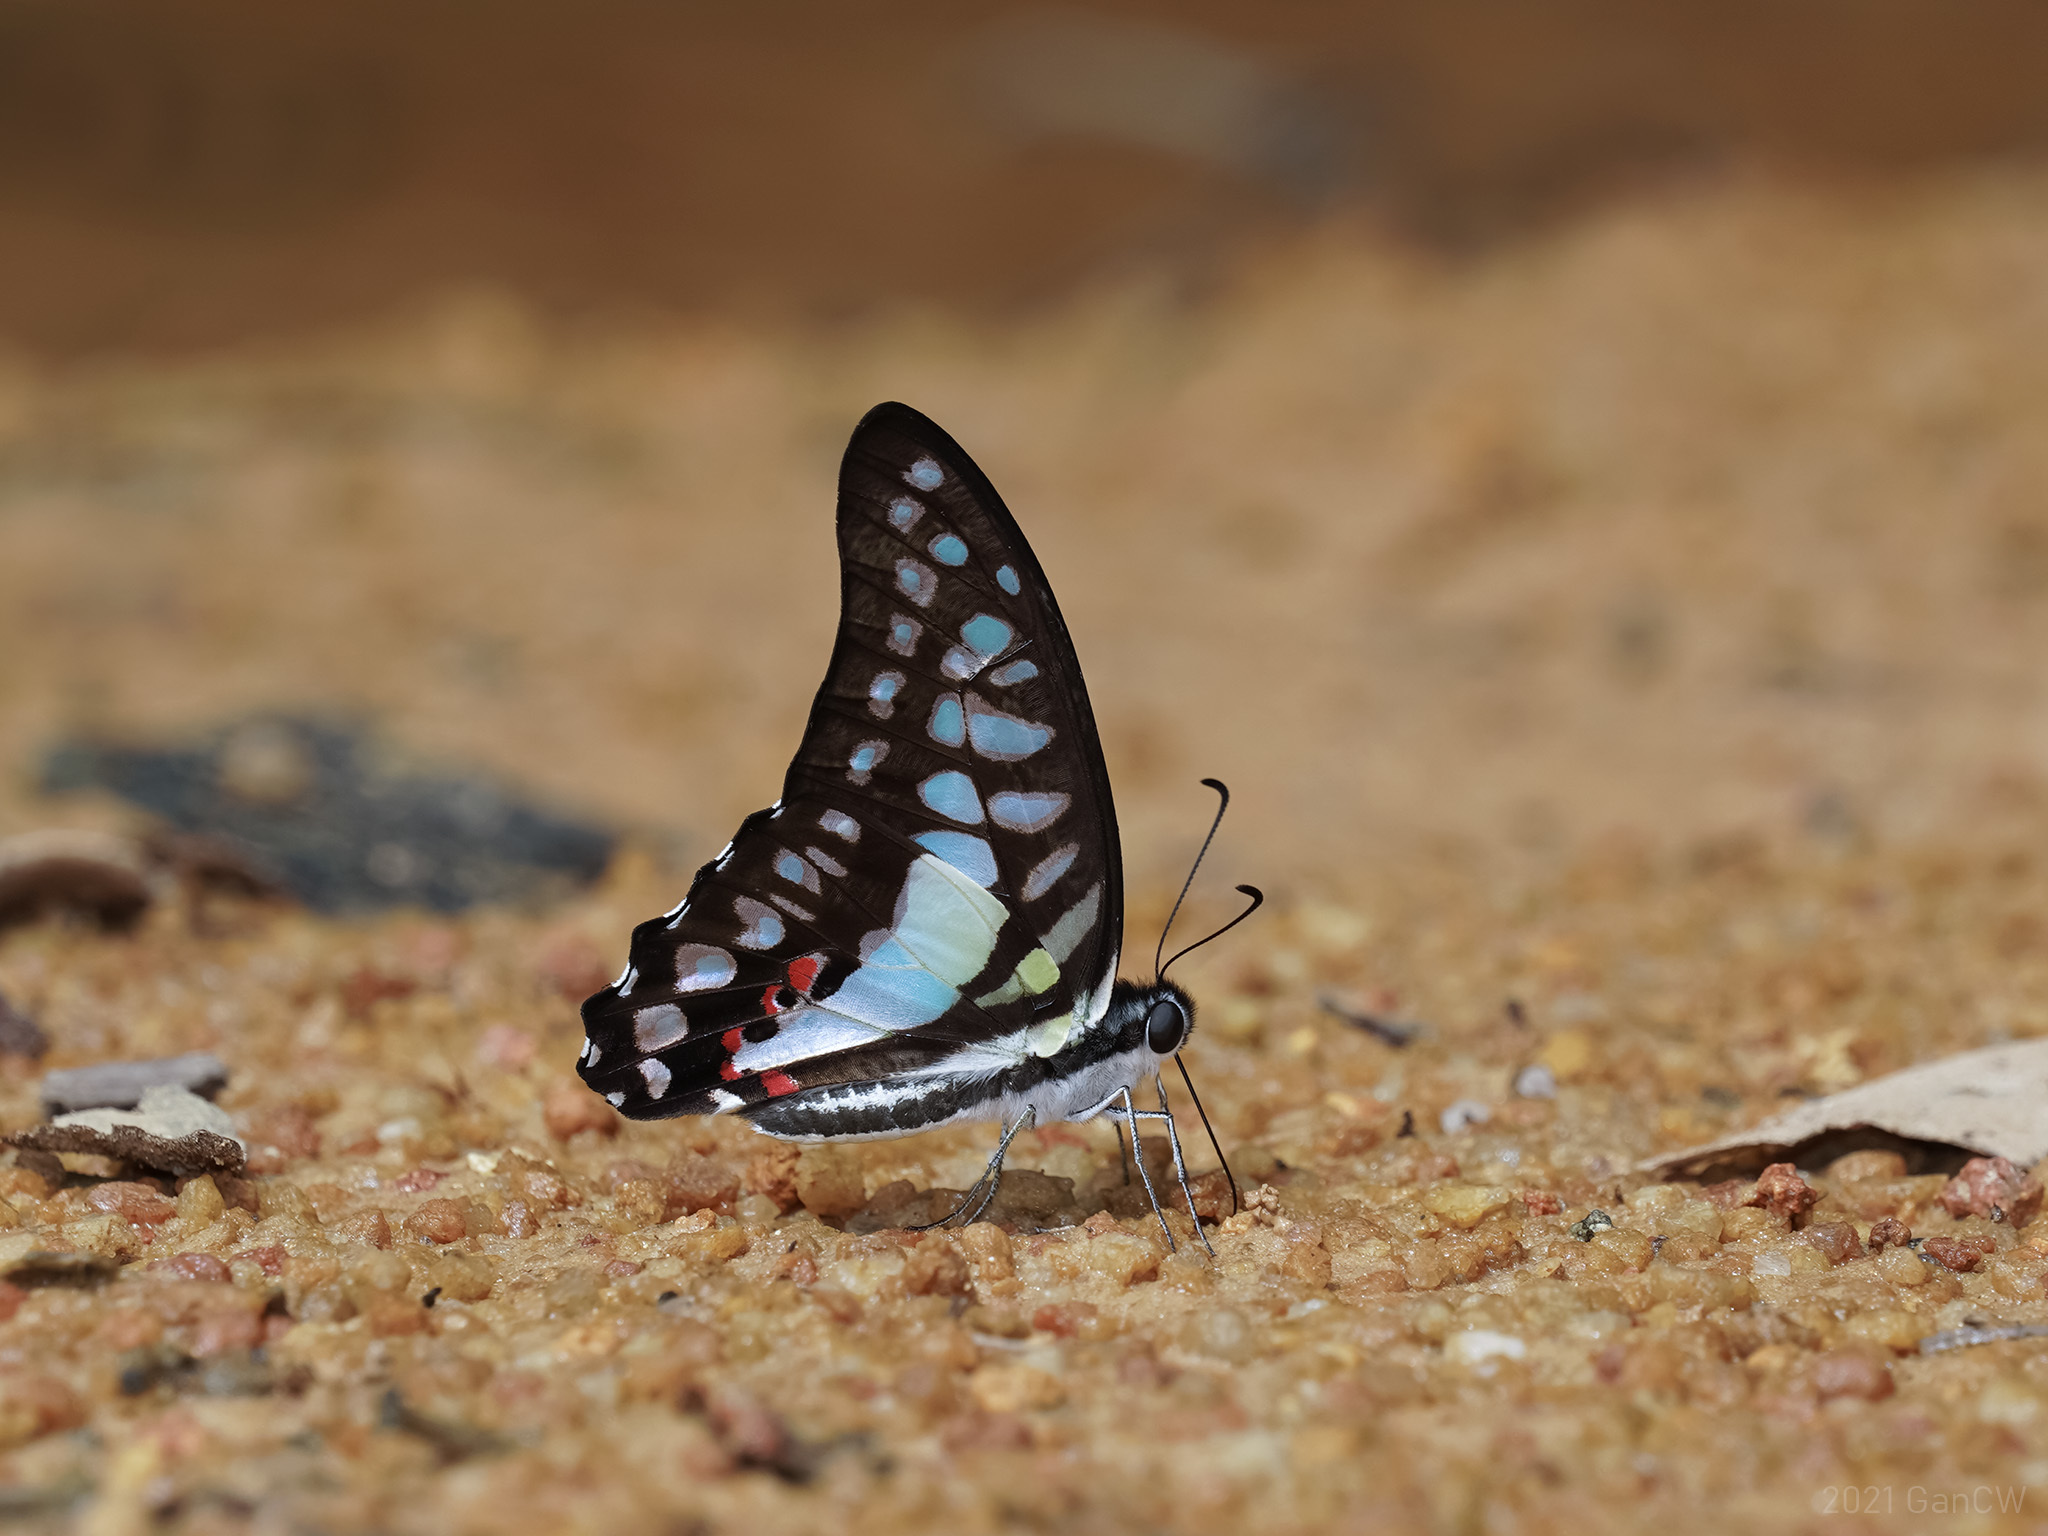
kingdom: Animalia
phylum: Arthropoda
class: Insecta
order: Lepidoptera
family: Papilionidae
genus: Graphium
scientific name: Graphium evemon
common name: Lesser jay
